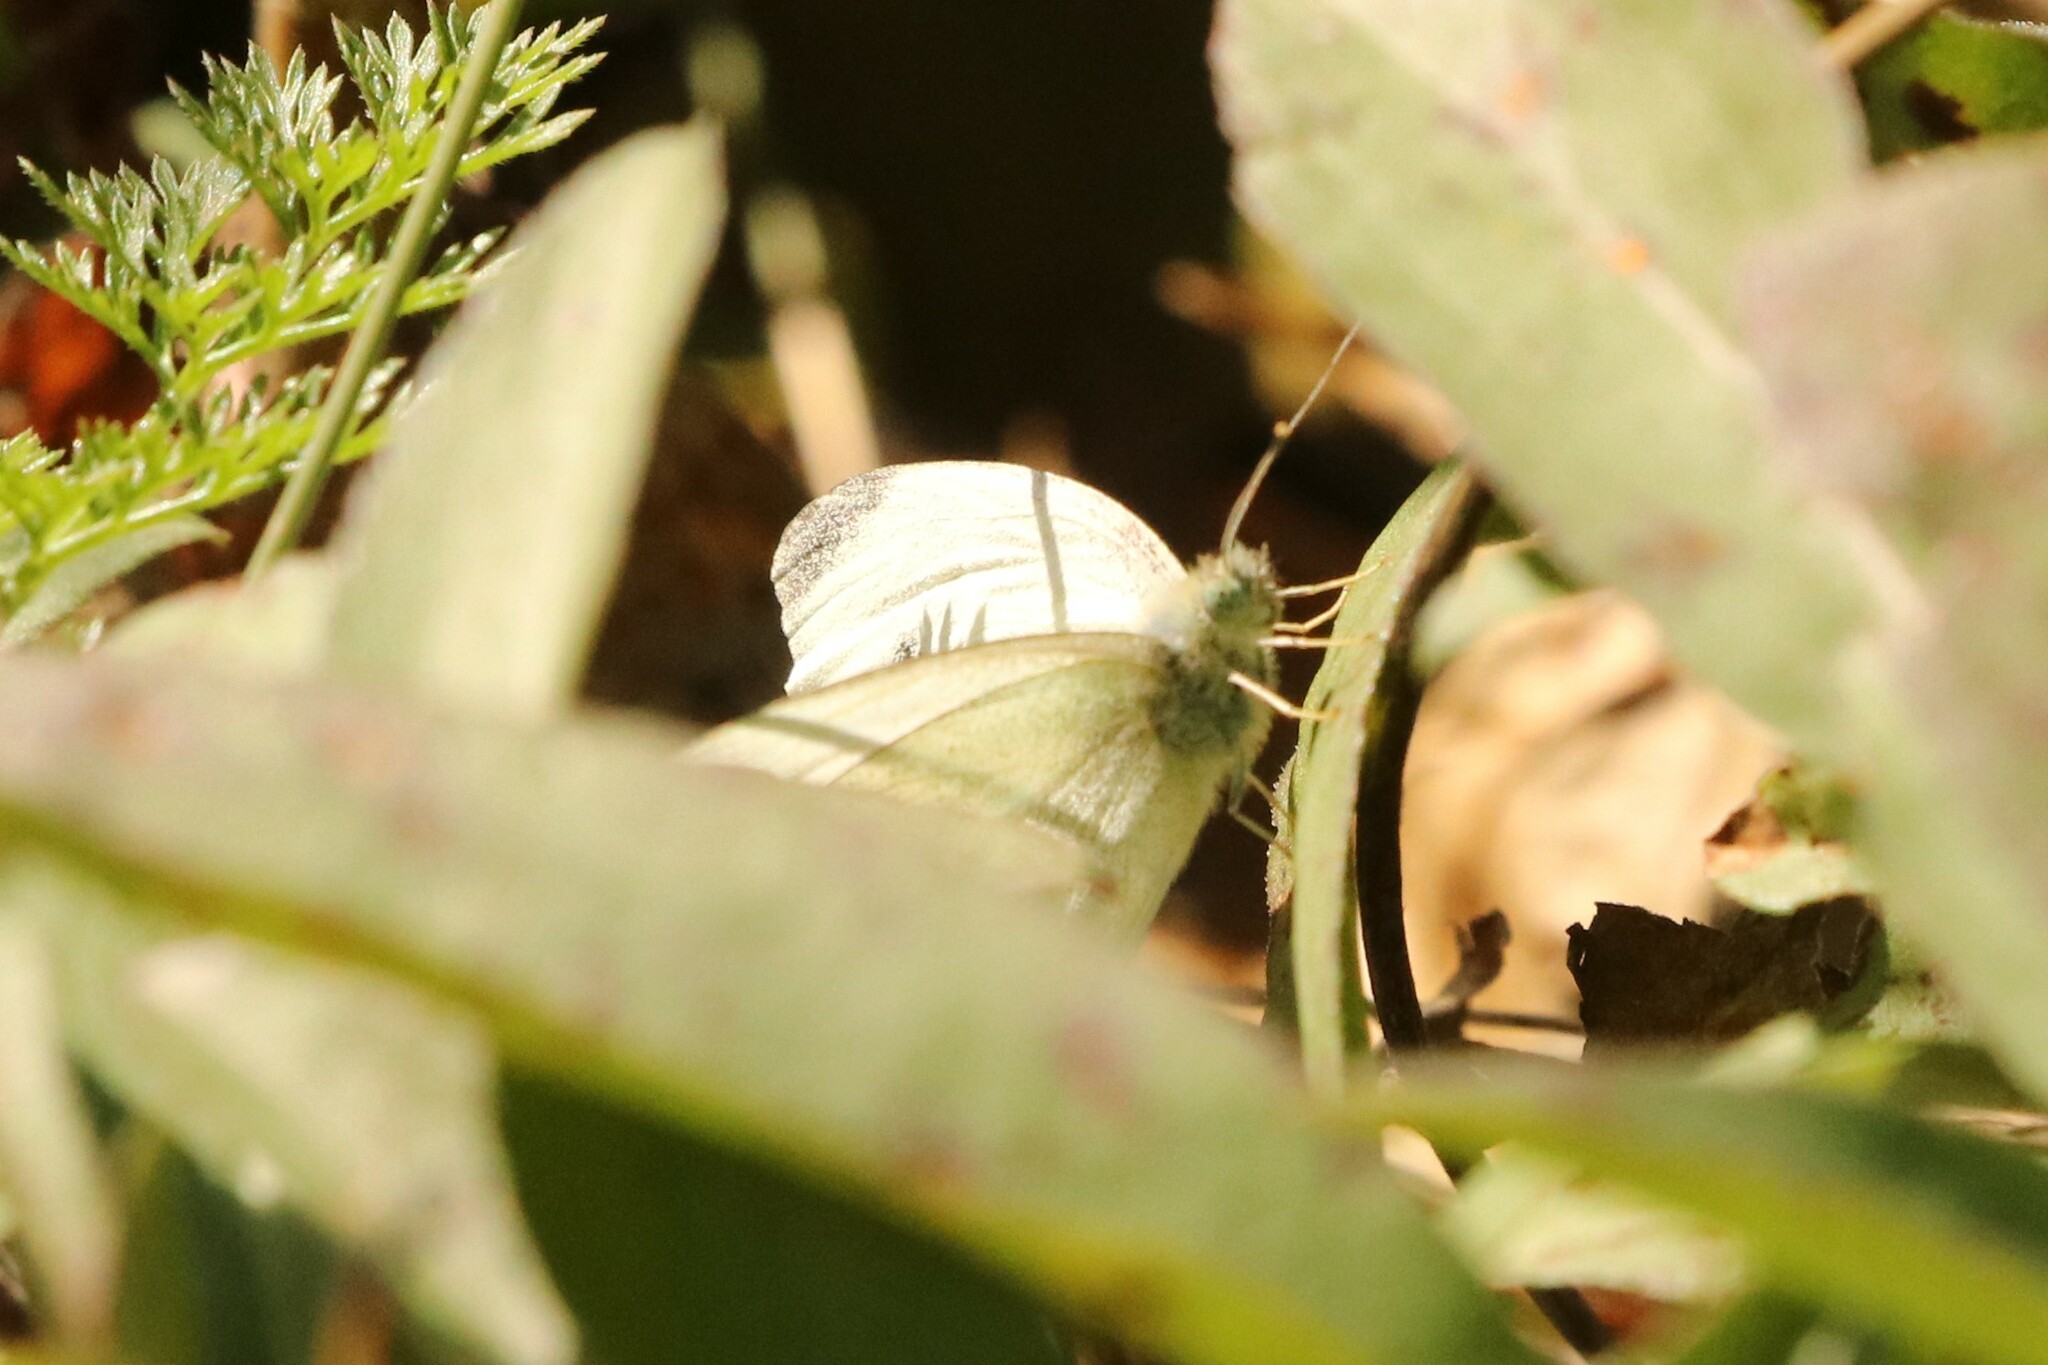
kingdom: Animalia
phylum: Arthropoda
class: Insecta
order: Lepidoptera
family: Pieridae
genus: Pieris
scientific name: Pieris rapae
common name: Small white
